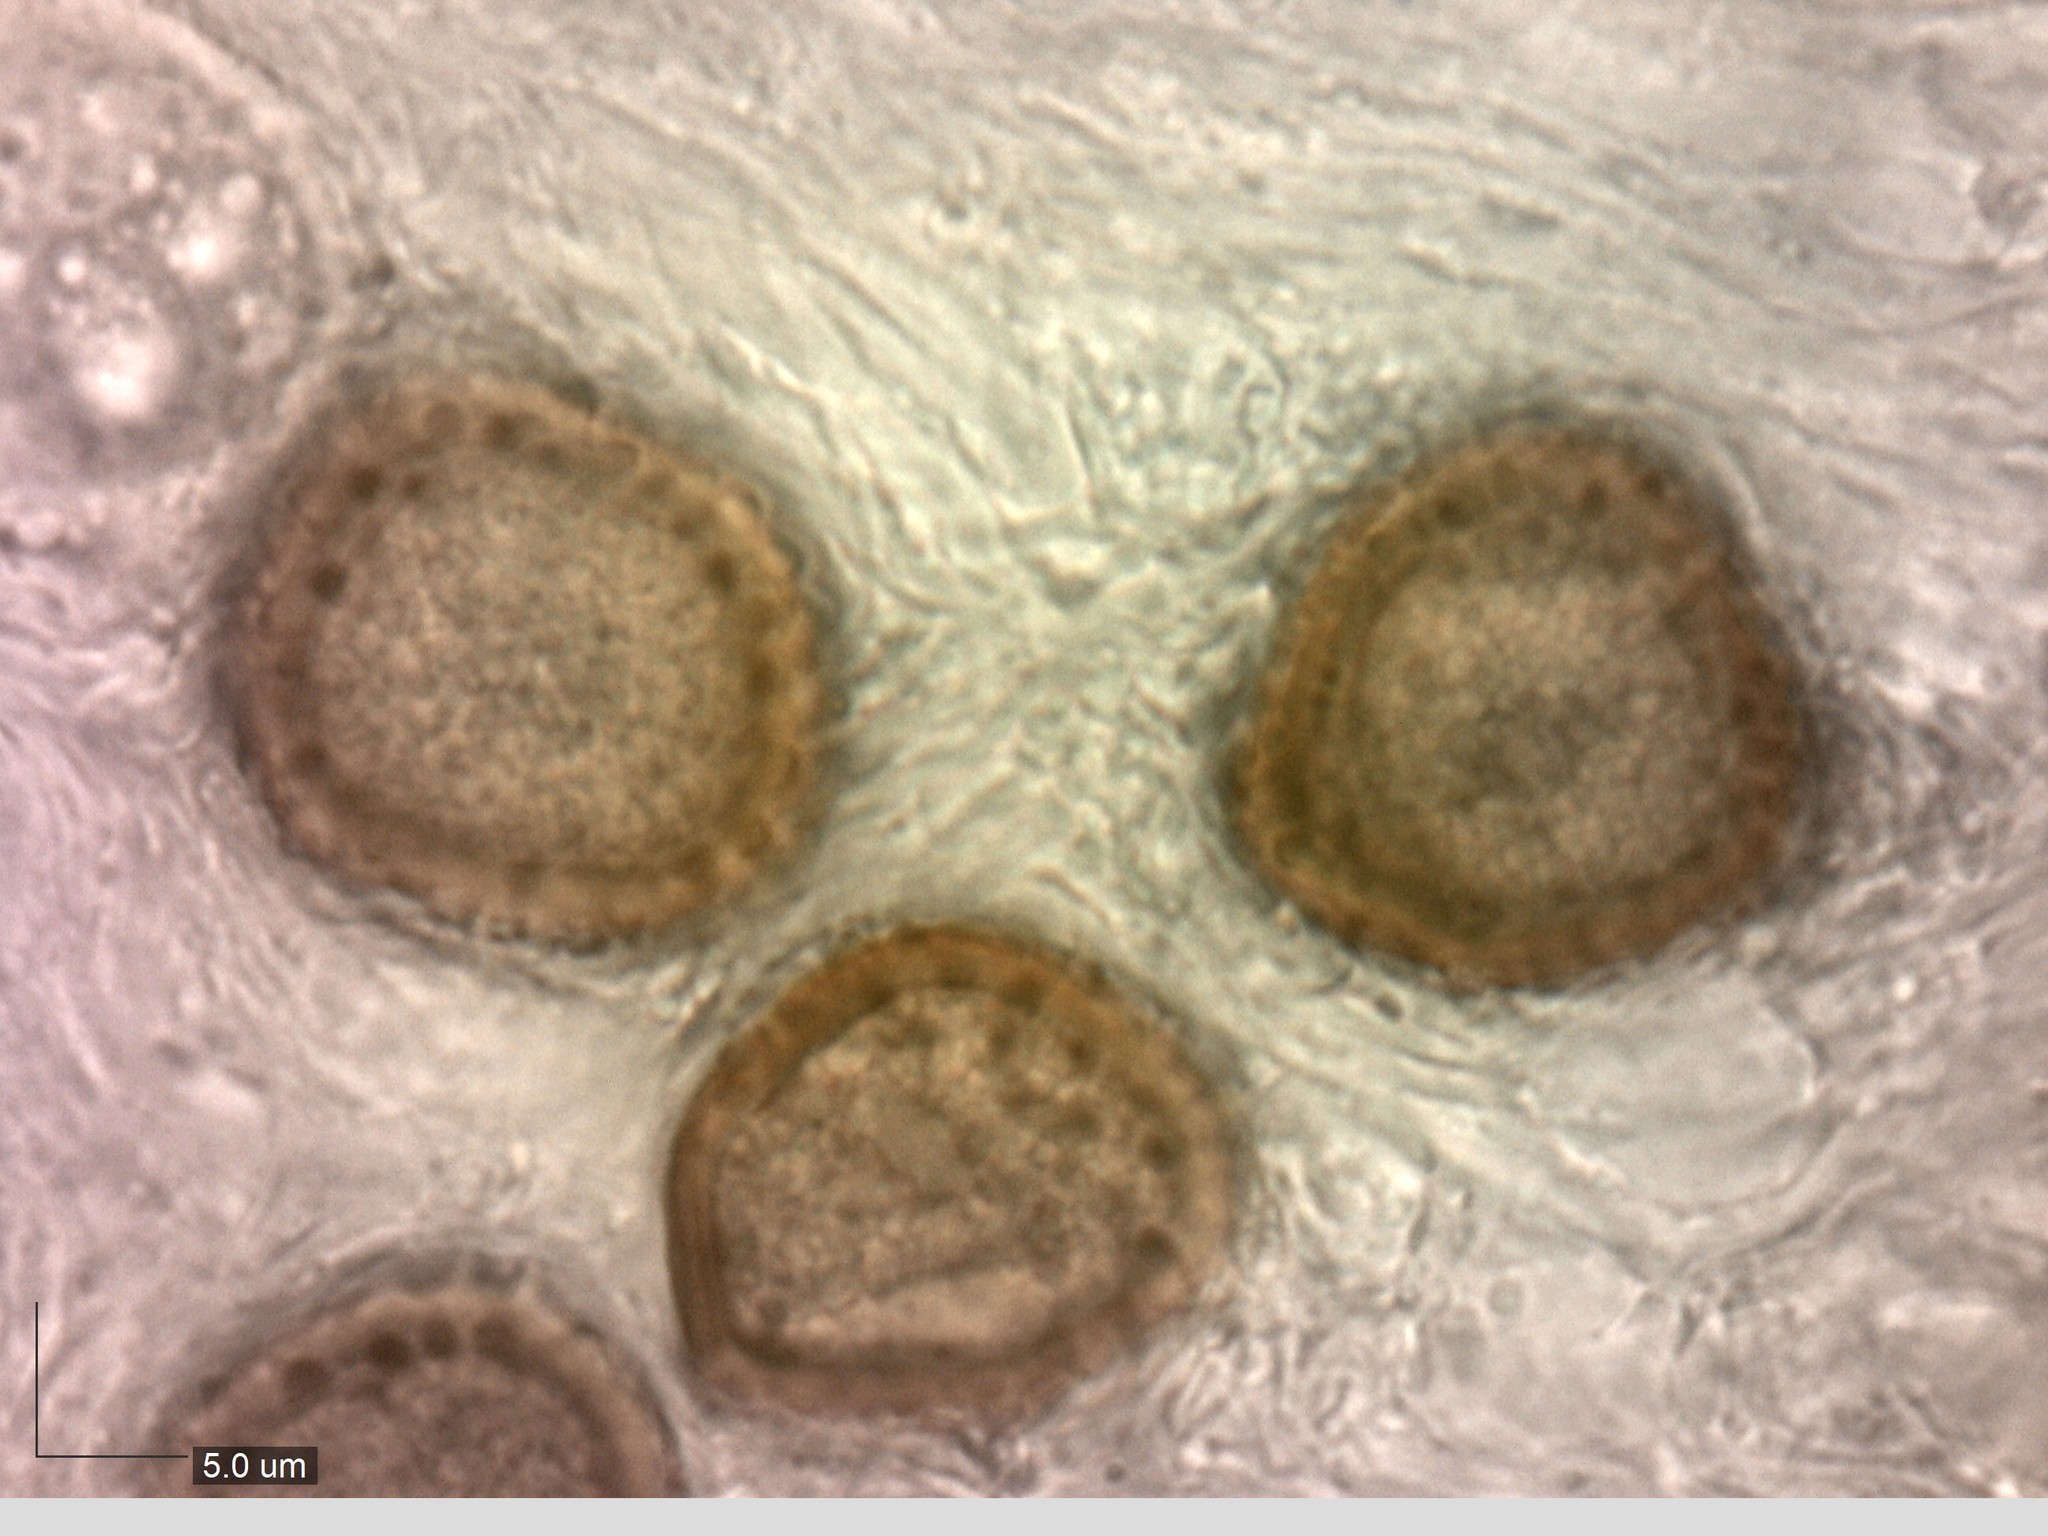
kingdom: Fungi
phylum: Basidiomycota
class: Pucciniomycetes
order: Pucciniales
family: Tranzscheliaceae
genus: Tranzschelia
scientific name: Tranzschelia anemones
